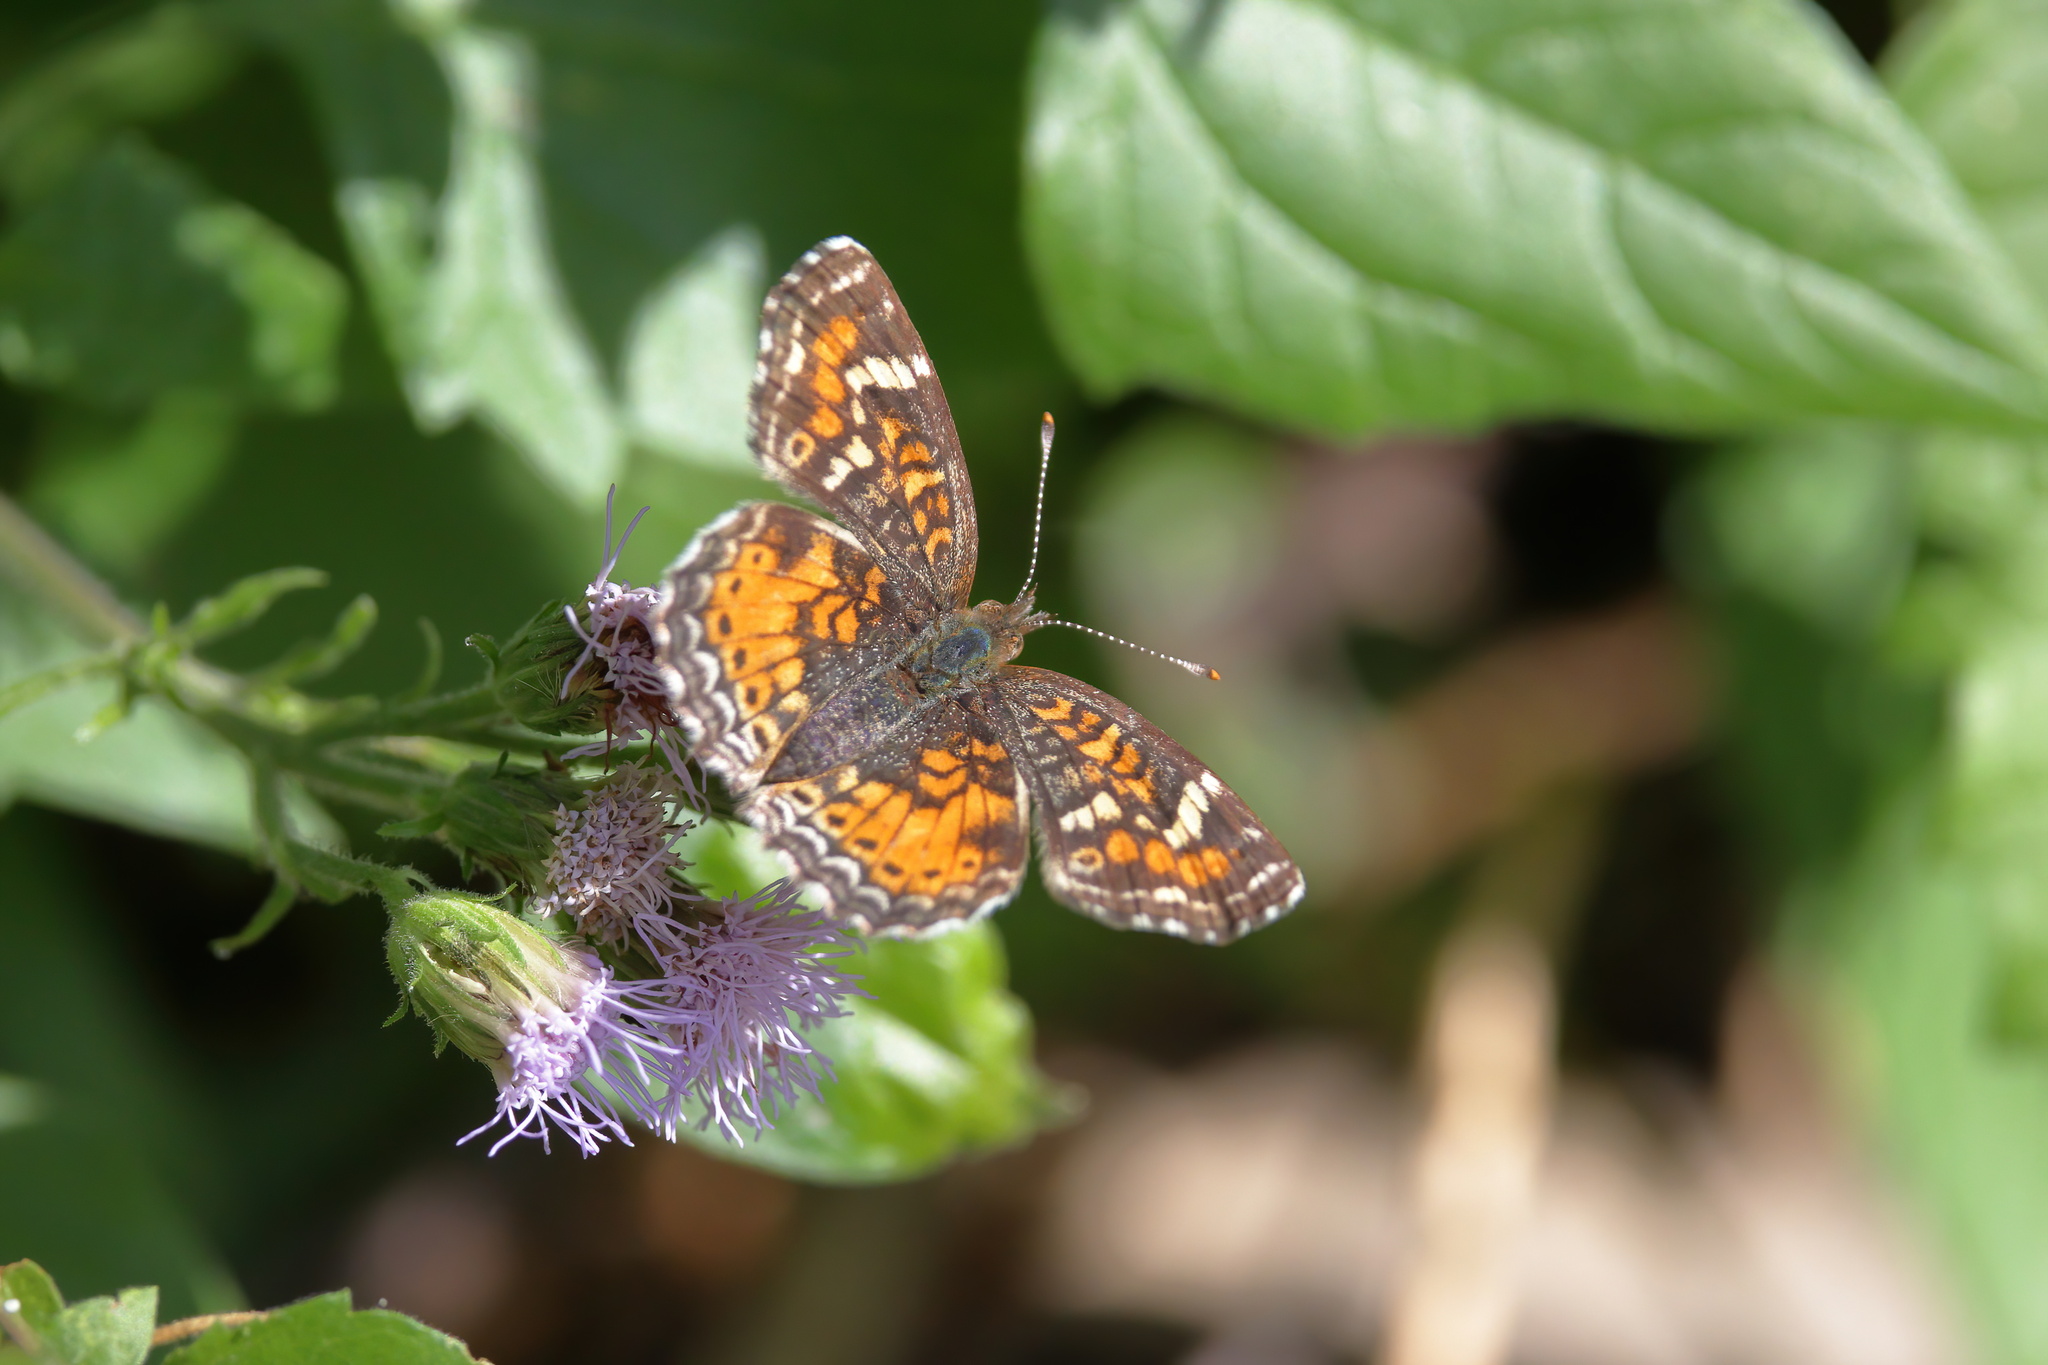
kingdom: Animalia
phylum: Arthropoda
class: Insecta
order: Lepidoptera
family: Nymphalidae
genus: Phyciodes
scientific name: Phyciodes phaon
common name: Phaon crescent
